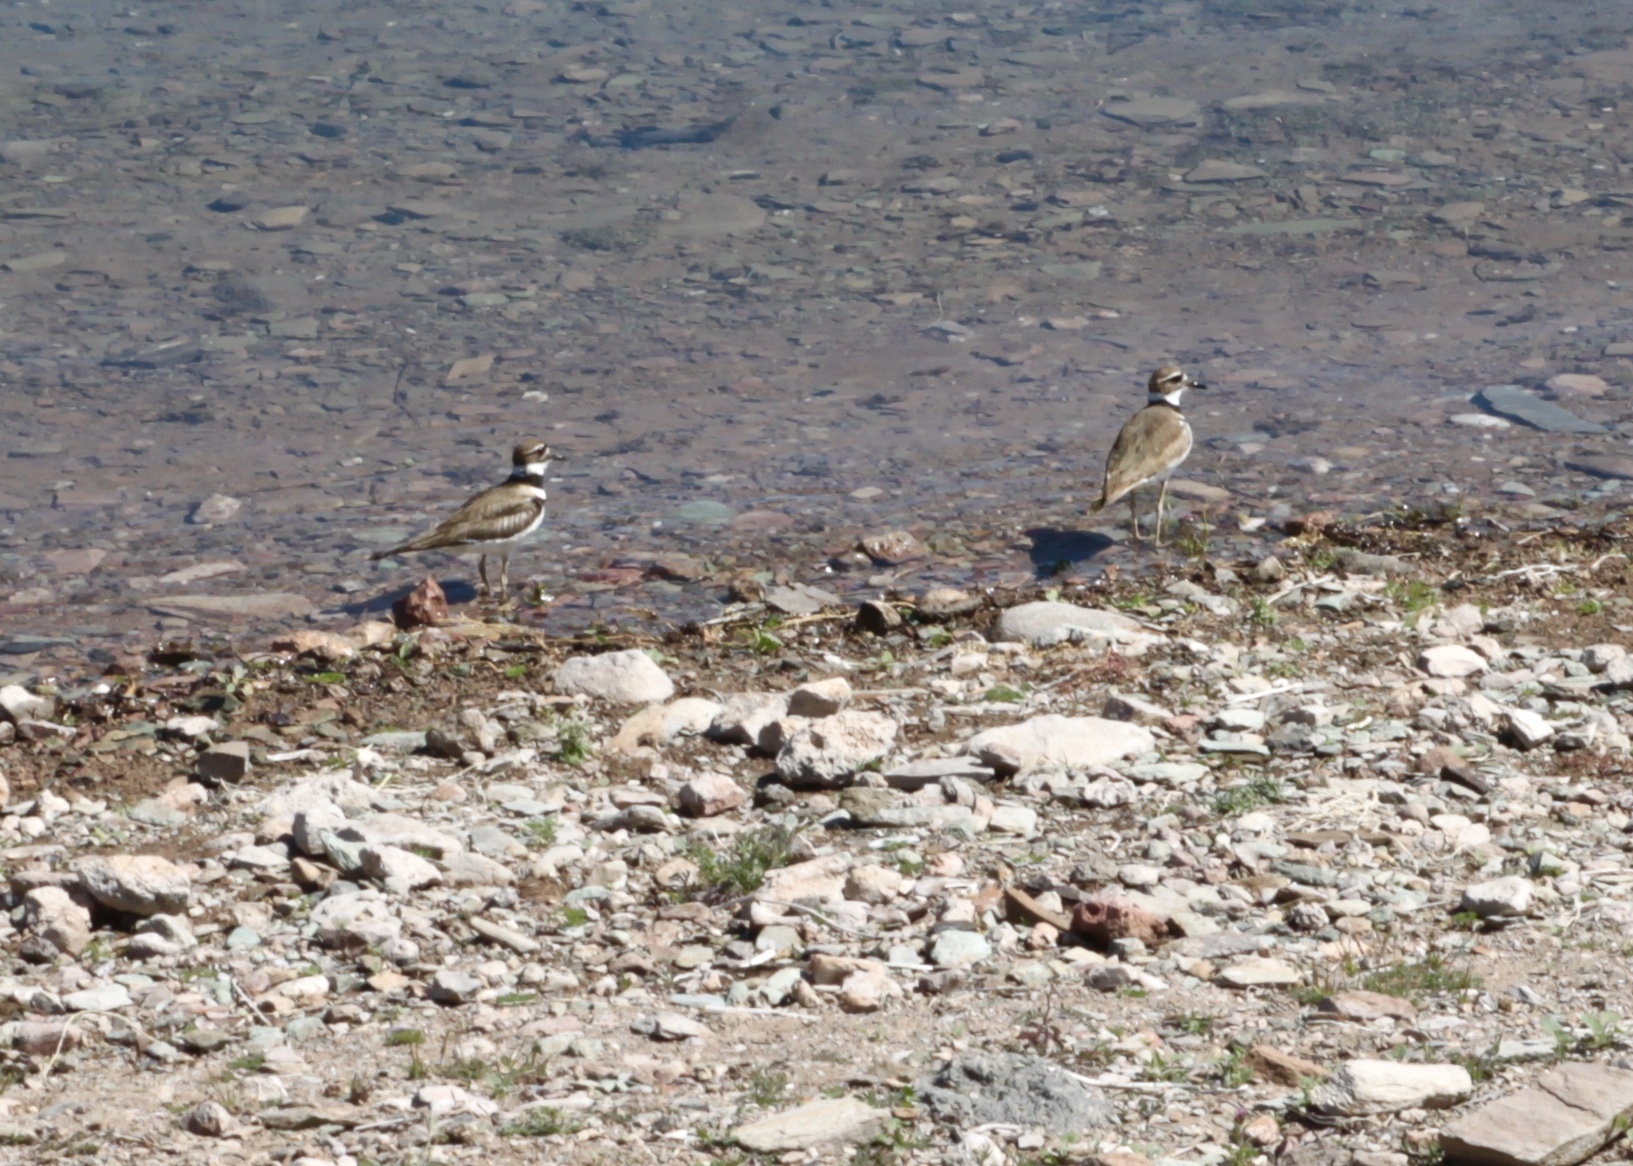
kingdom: Animalia
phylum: Chordata
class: Aves
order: Charadriiformes
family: Charadriidae
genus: Charadrius
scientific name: Charadrius vociferus
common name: Killdeer
